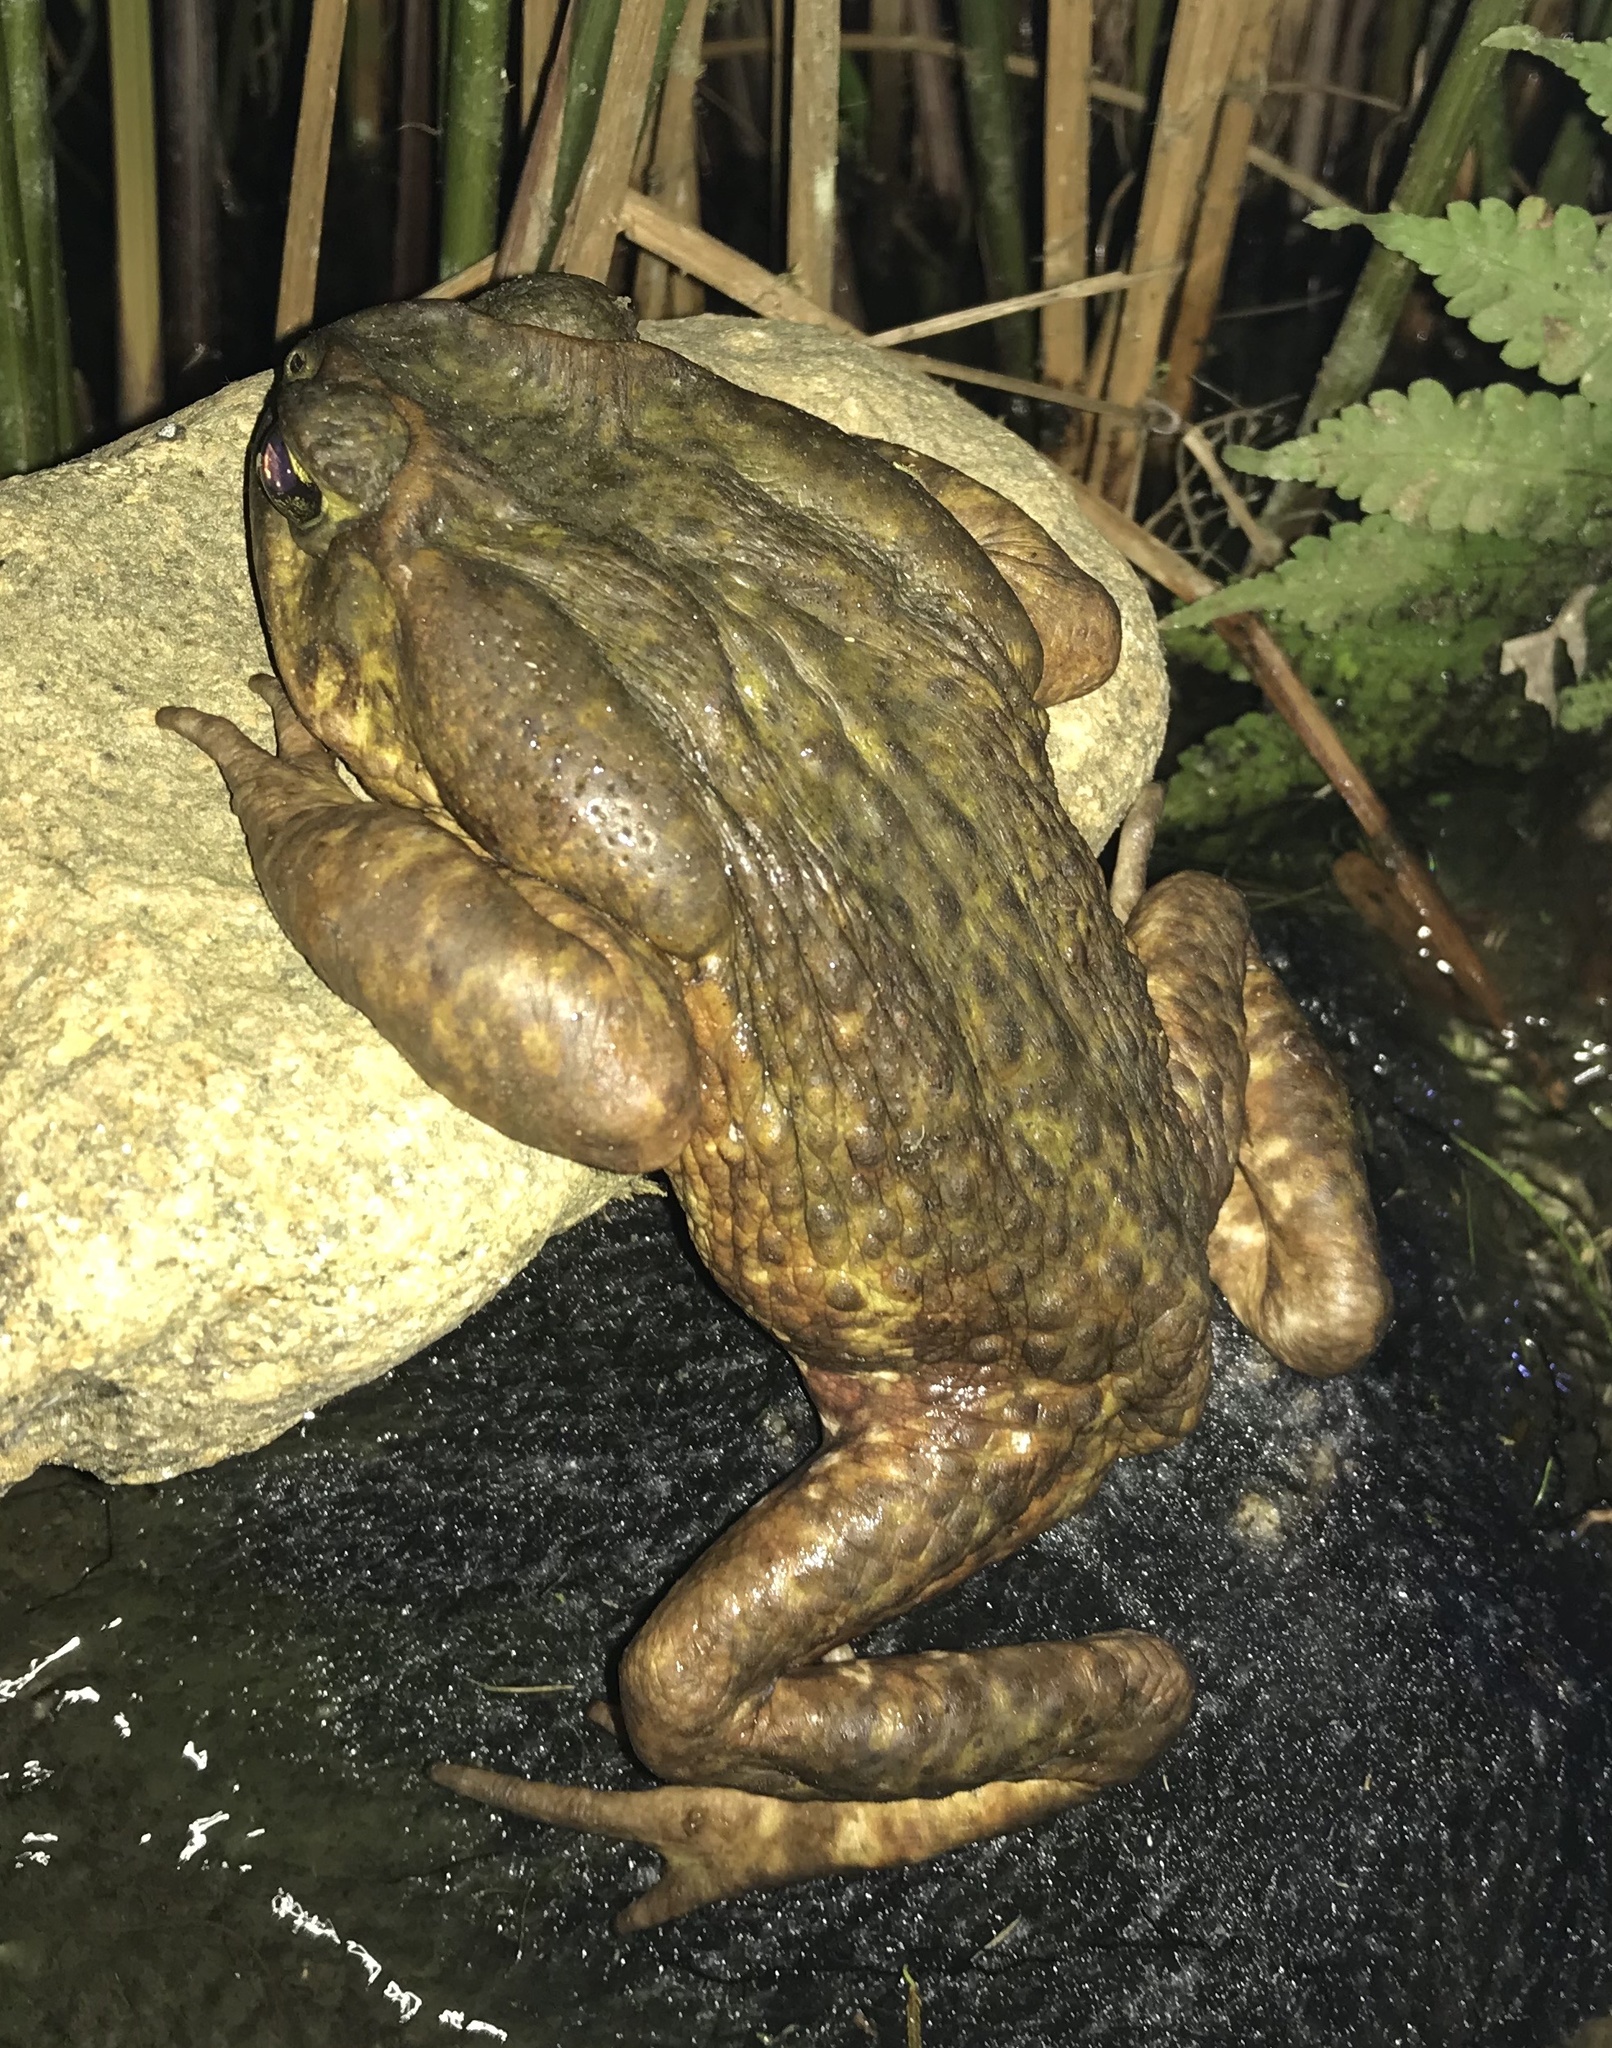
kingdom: Animalia
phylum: Chordata
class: Amphibia
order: Anura
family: Bufonidae
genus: Rhinella
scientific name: Rhinella icterica
